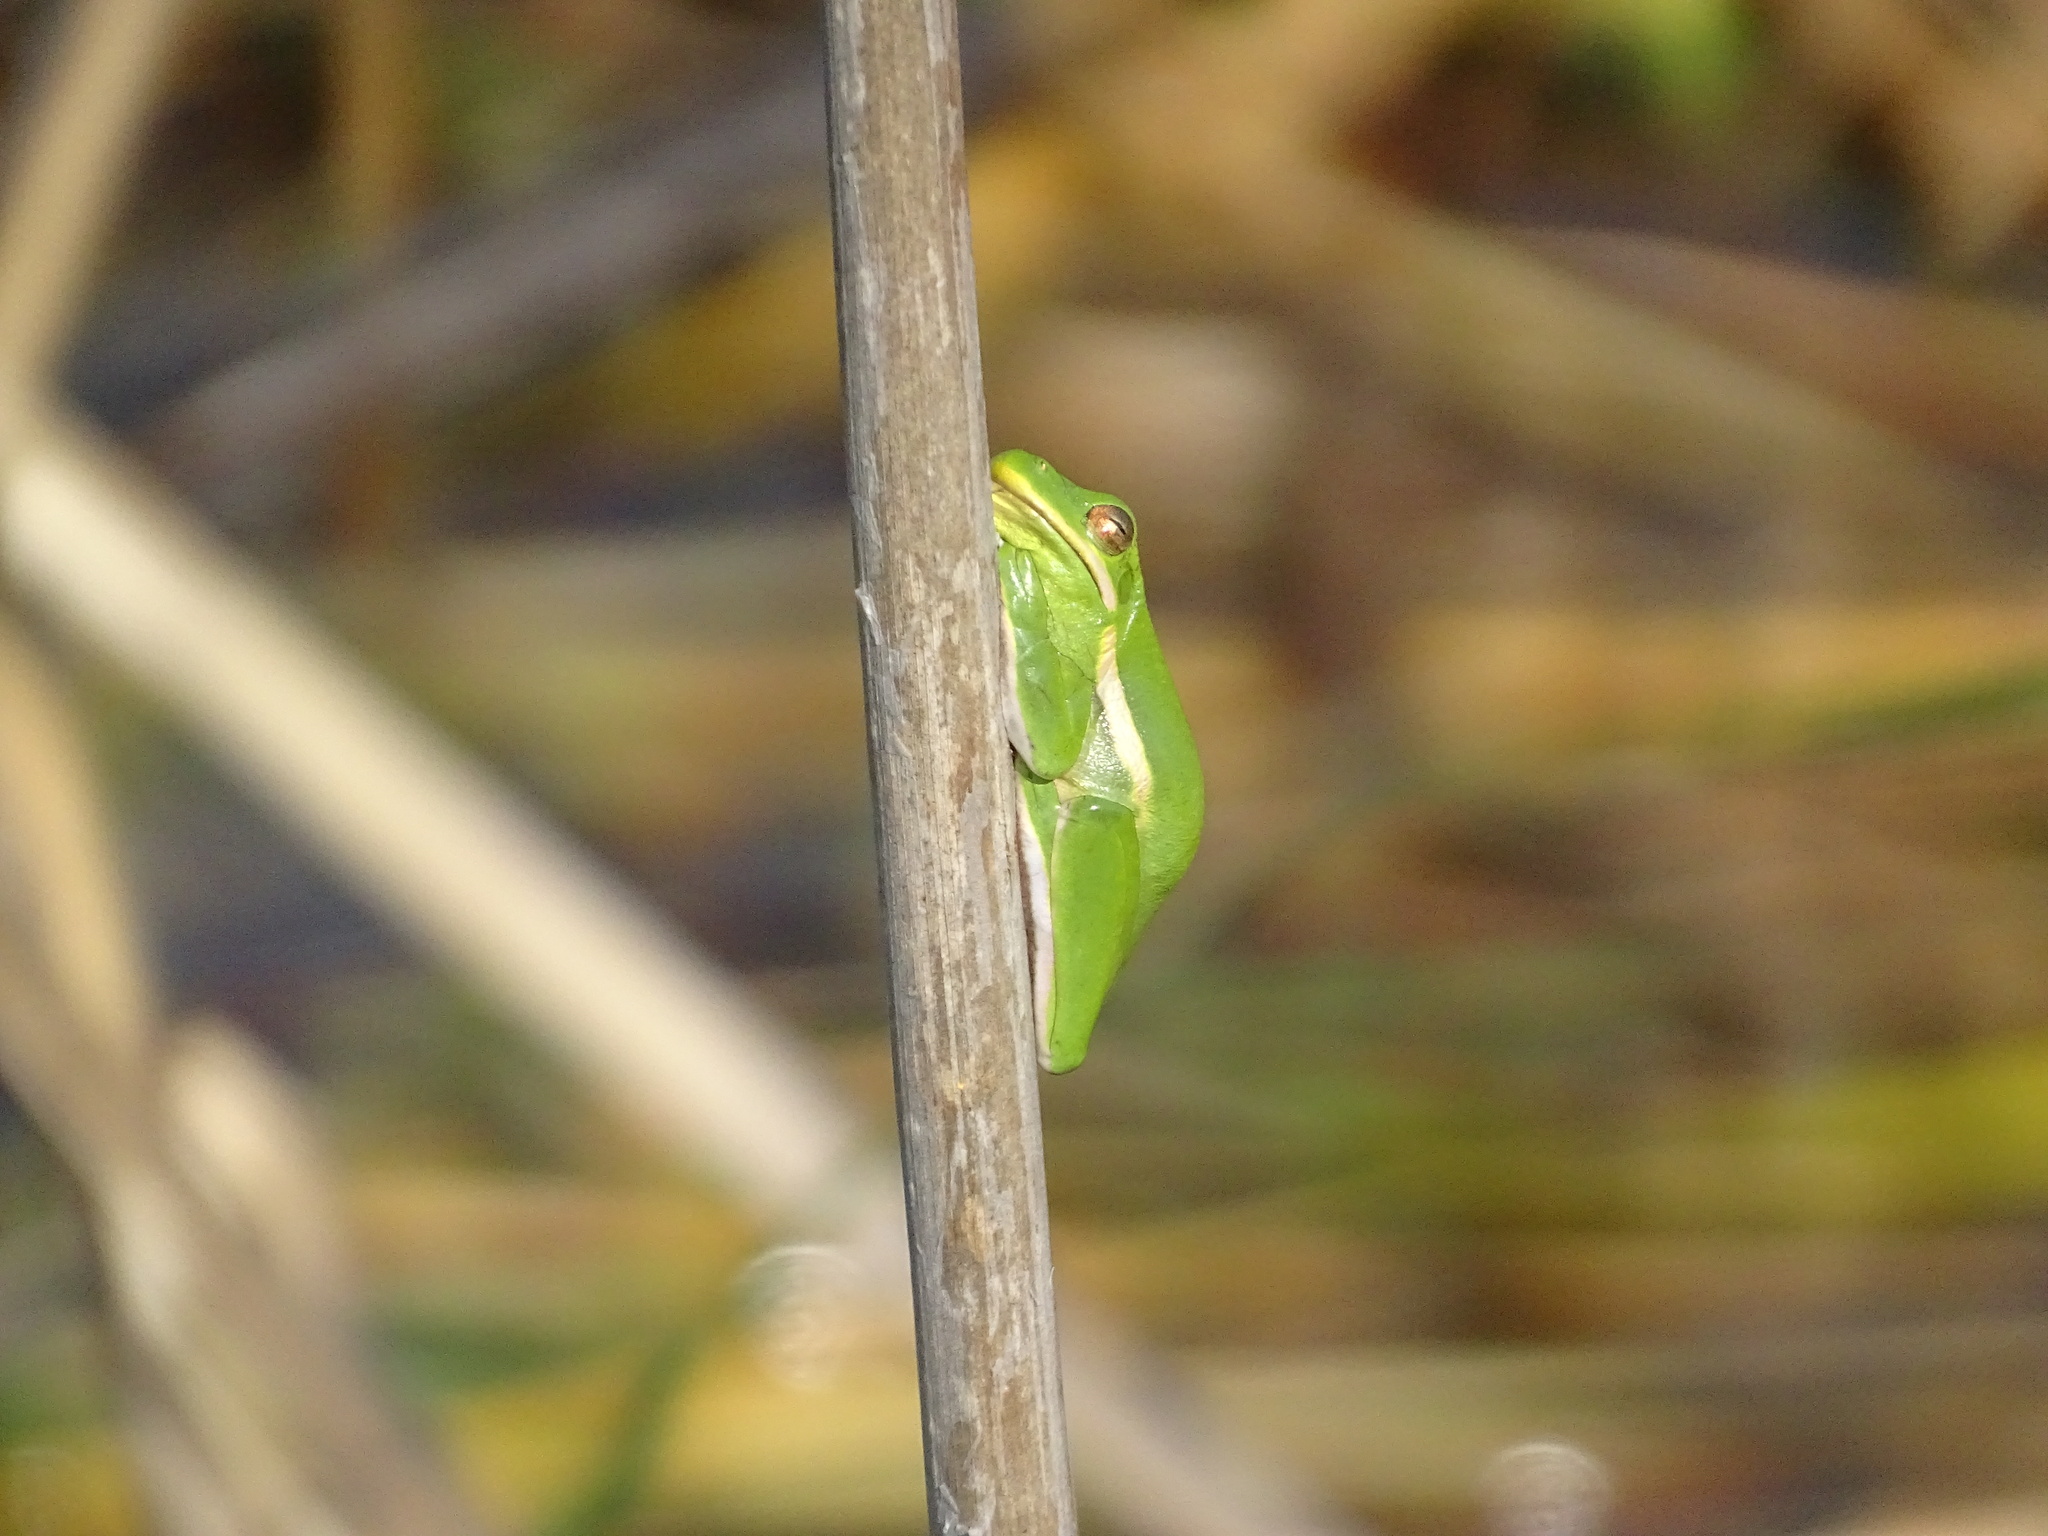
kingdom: Animalia
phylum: Chordata
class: Amphibia
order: Anura
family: Hylidae
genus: Dryophytes
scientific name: Dryophytes cinereus
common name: Green treefrog
